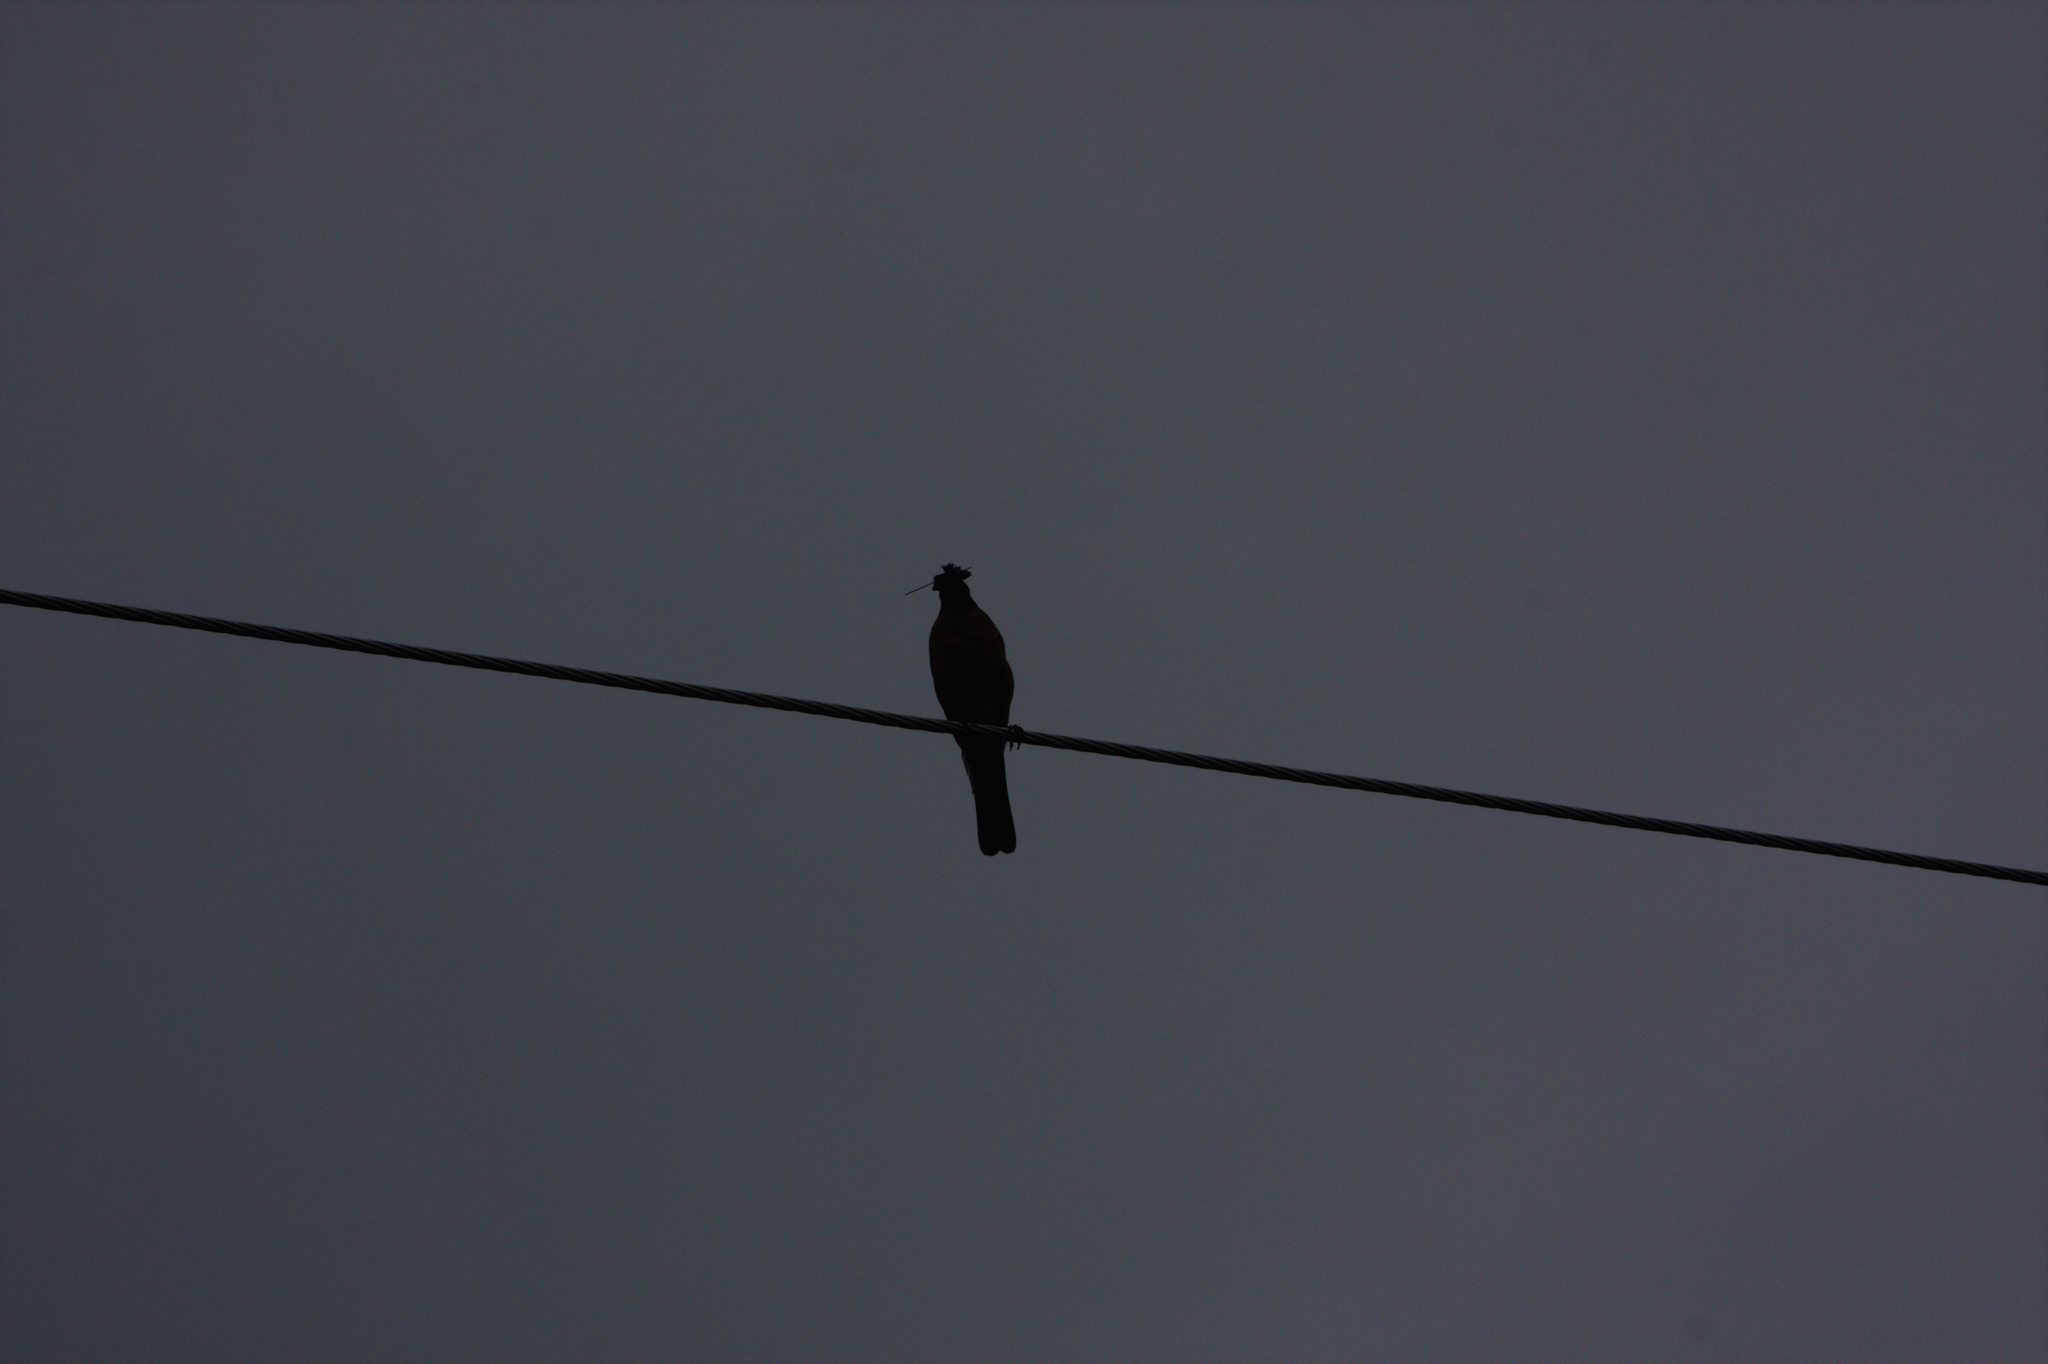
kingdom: Animalia
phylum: Chordata
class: Aves
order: Passeriformes
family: Turdidae
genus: Turdus
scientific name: Turdus migratorius
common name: American robin
